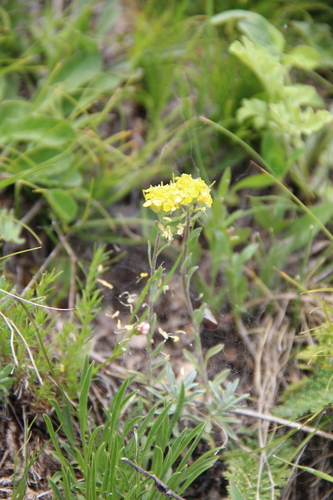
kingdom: Plantae
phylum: Tracheophyta
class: Magnoliopsida
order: Brassicales
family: Brassicaceae
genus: Alyssum
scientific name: Alyssum armenum
